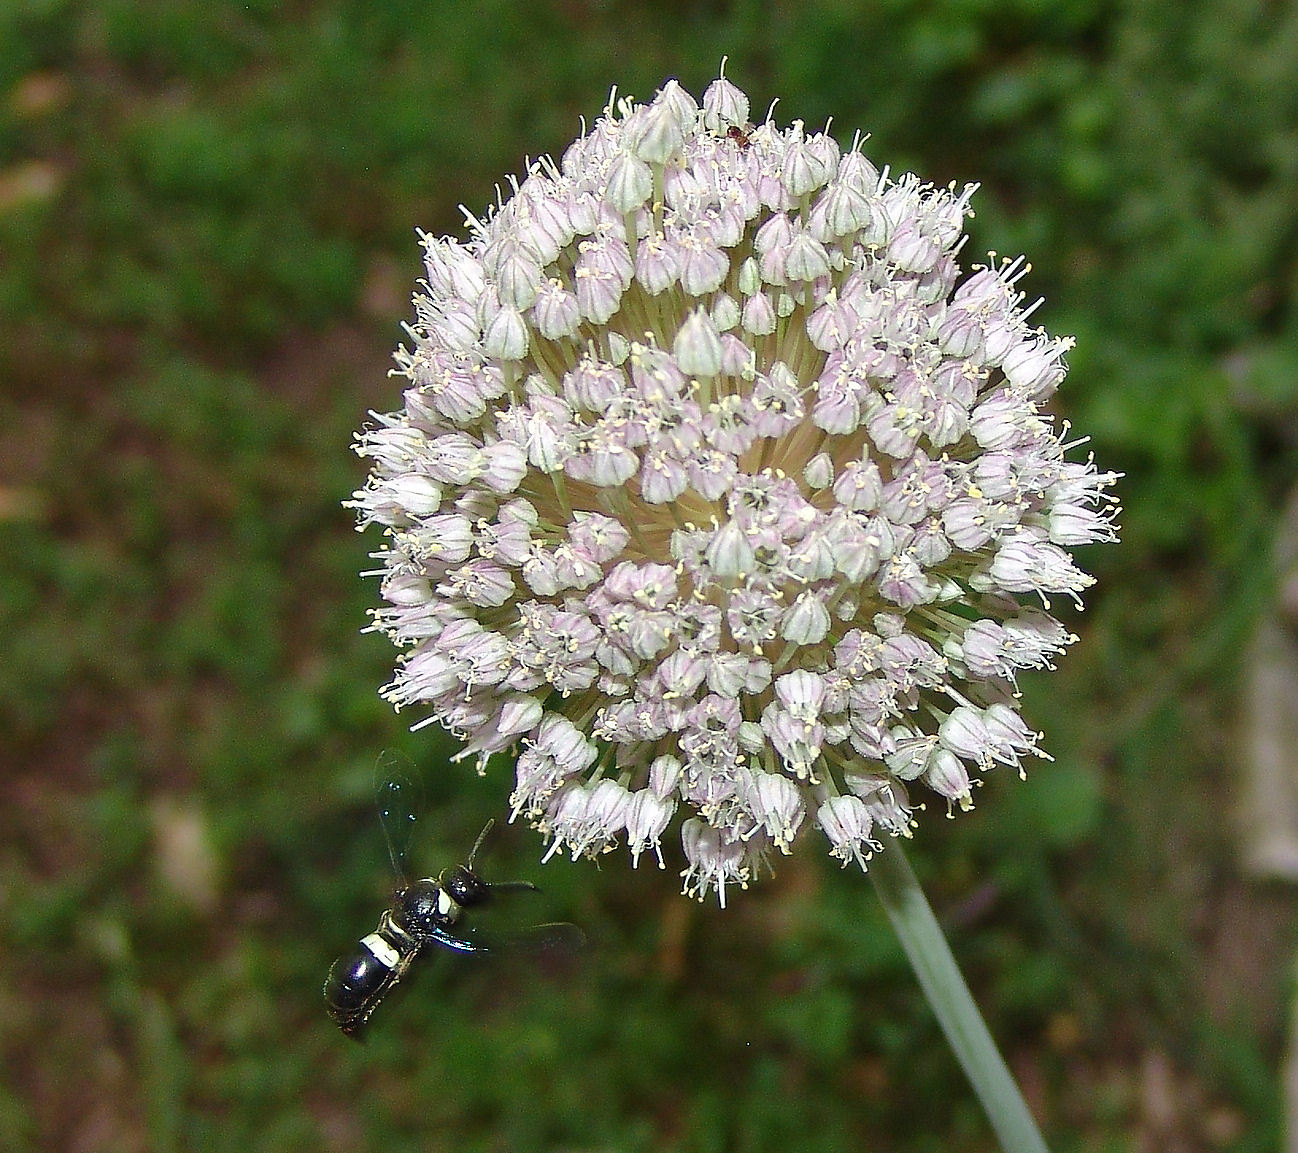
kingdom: Animalia
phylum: Arthropoda
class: Insecta
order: Hymenoptera
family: Eumenidae
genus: Monobia
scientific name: Monobia quadridens
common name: Four-toothed mason wasp
